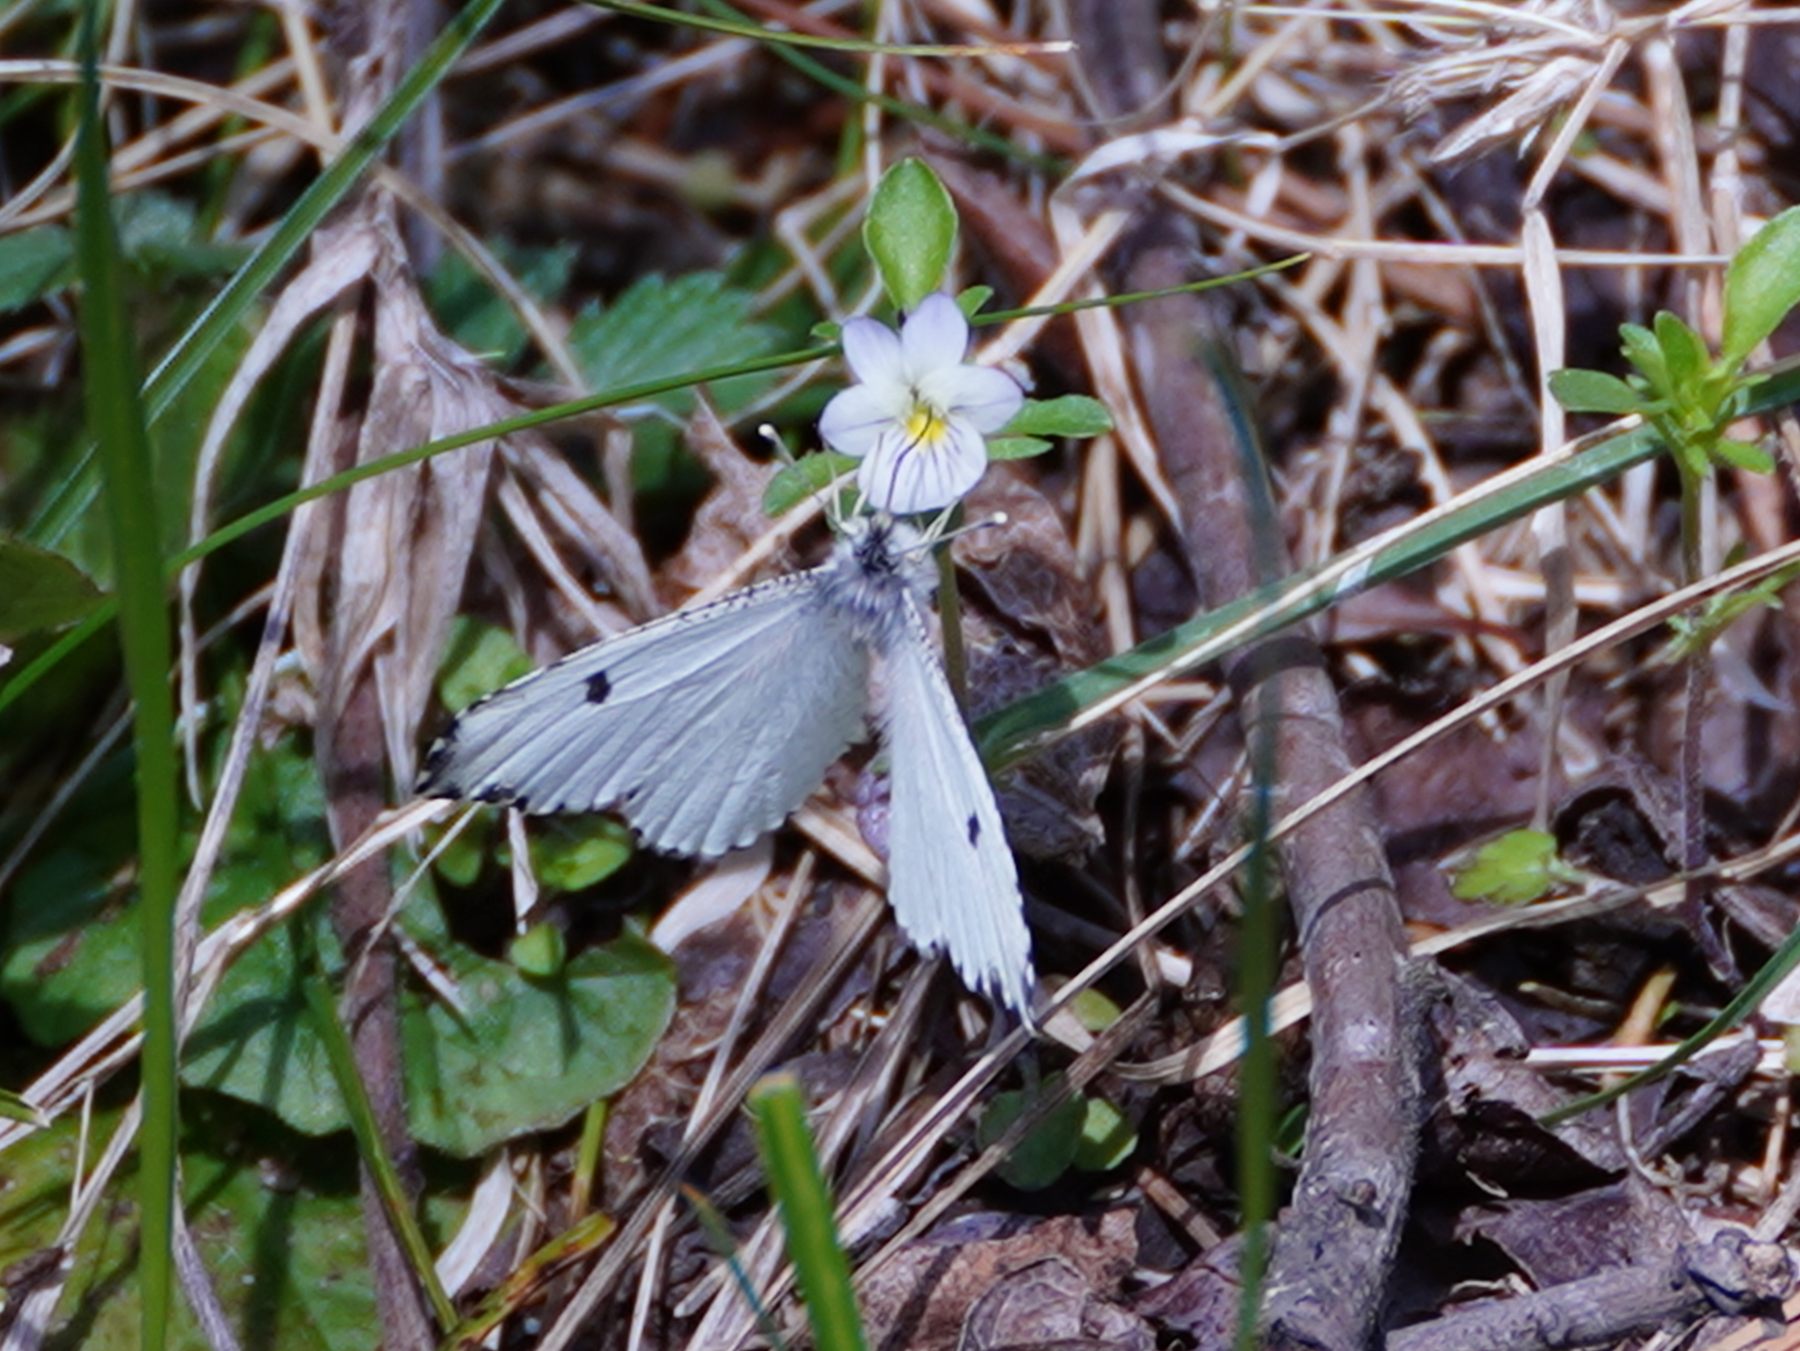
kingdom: Animalia
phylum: Arthropoda
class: Insecta
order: Lepidoptera
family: Pieridae
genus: Anthocharis
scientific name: Anthocharis midea
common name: Falcate orangetip
